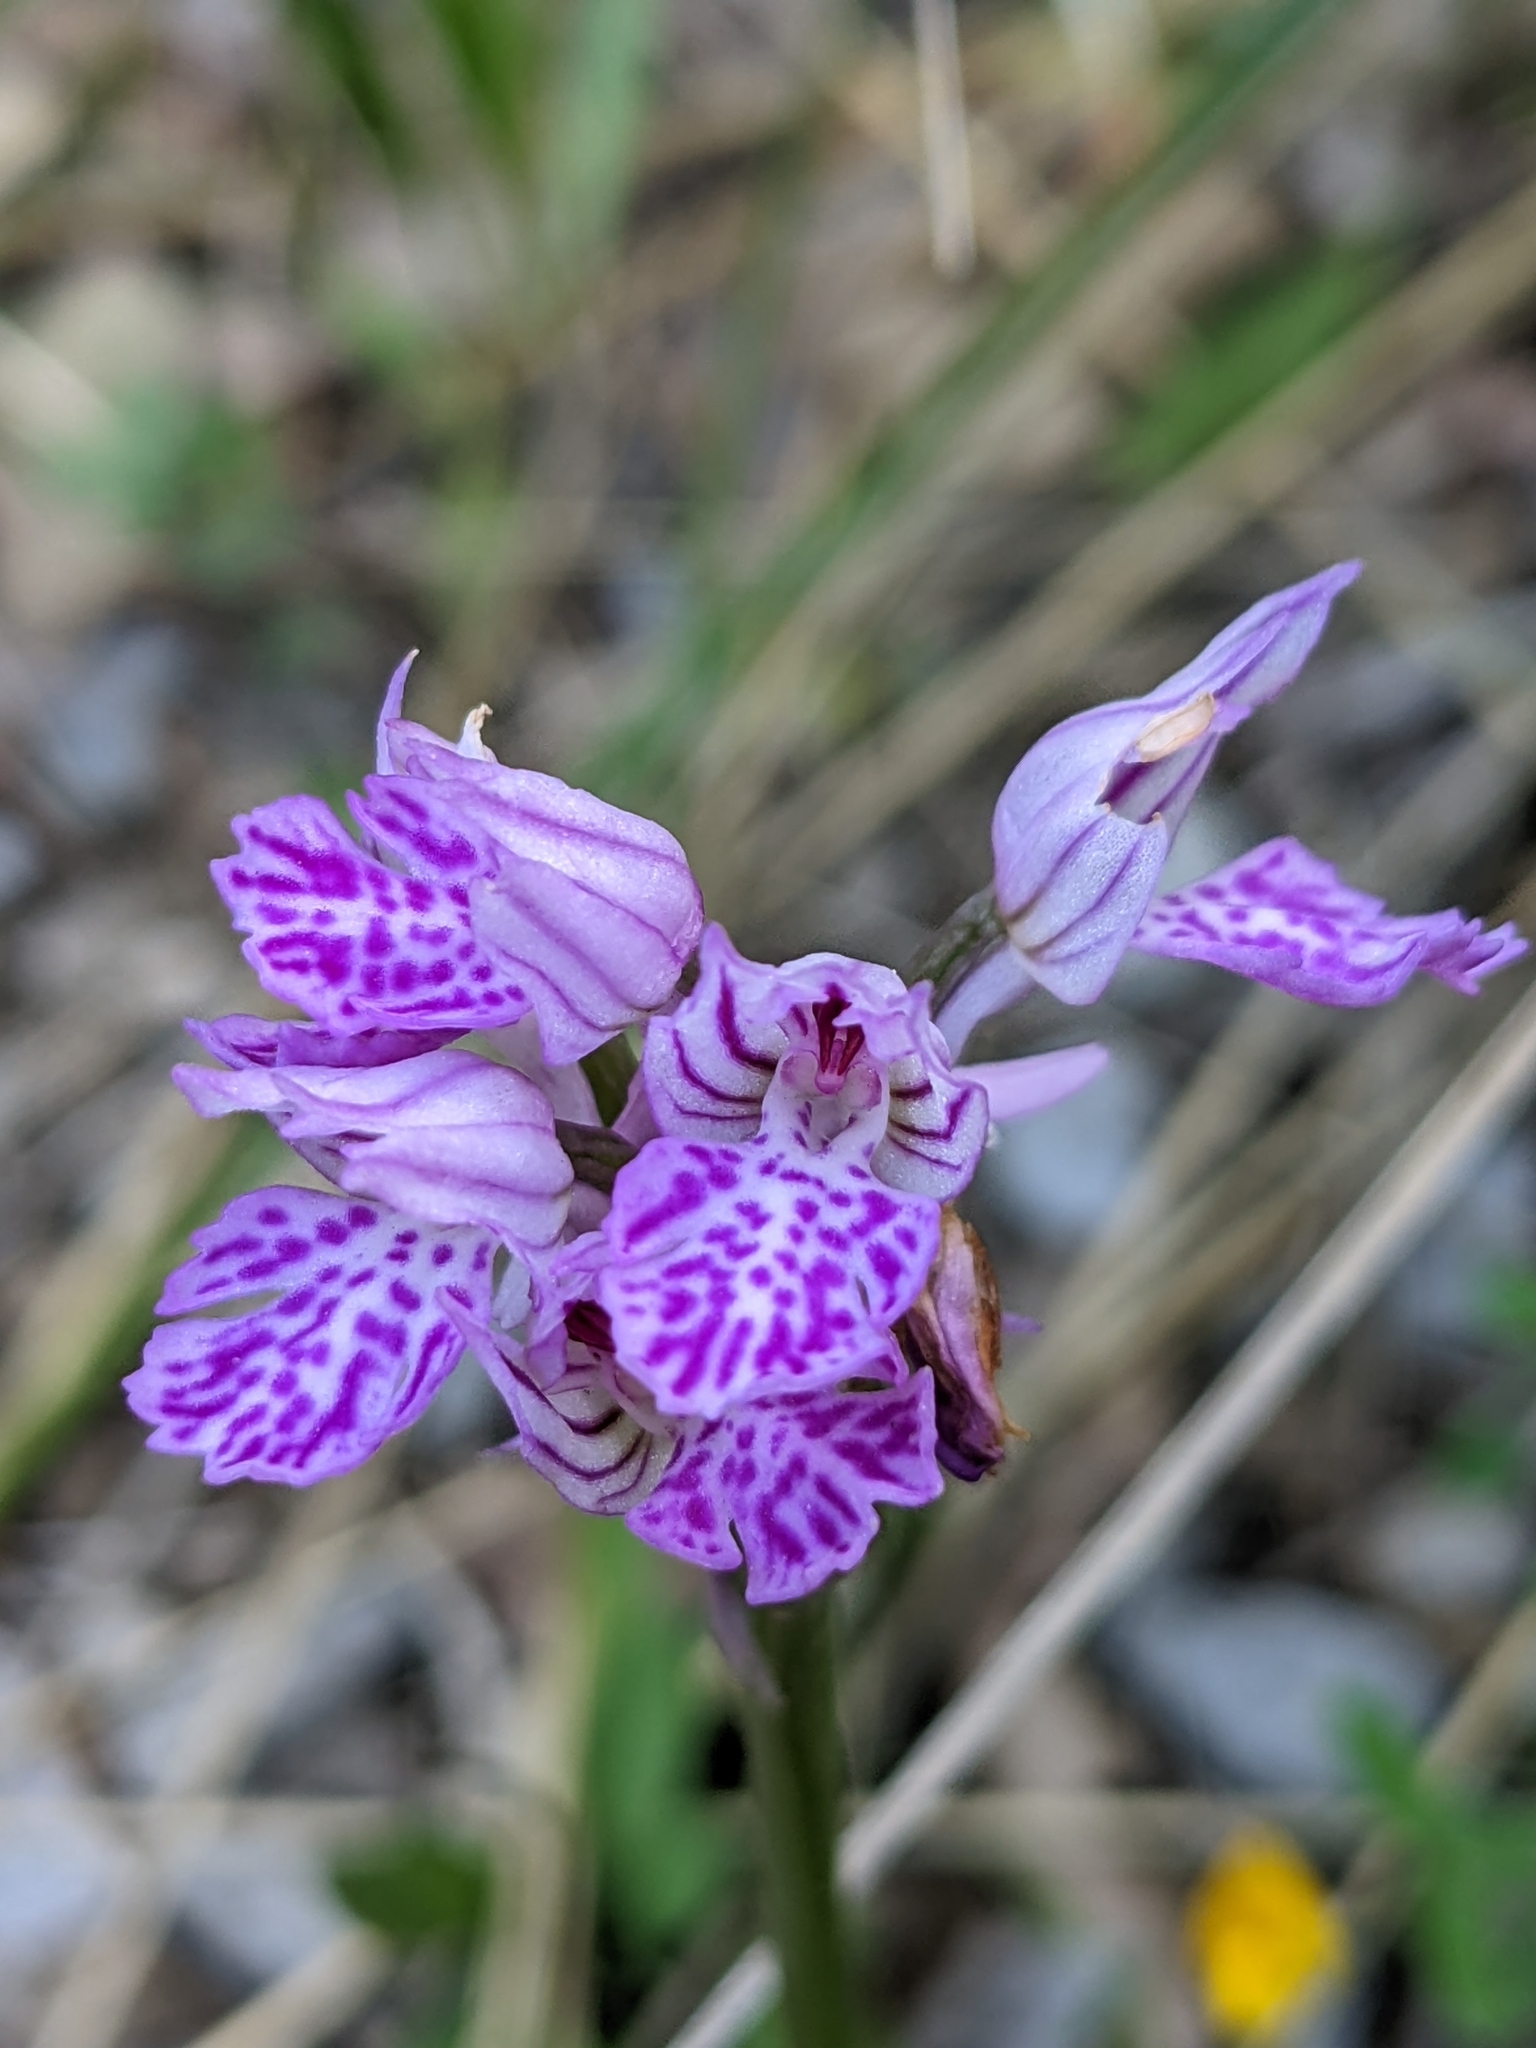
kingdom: Plantae
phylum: Tracheophyta
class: Liliopsida
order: Asparagales
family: Orchidaceae
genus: Neotinea
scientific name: Neotinea tridentata
